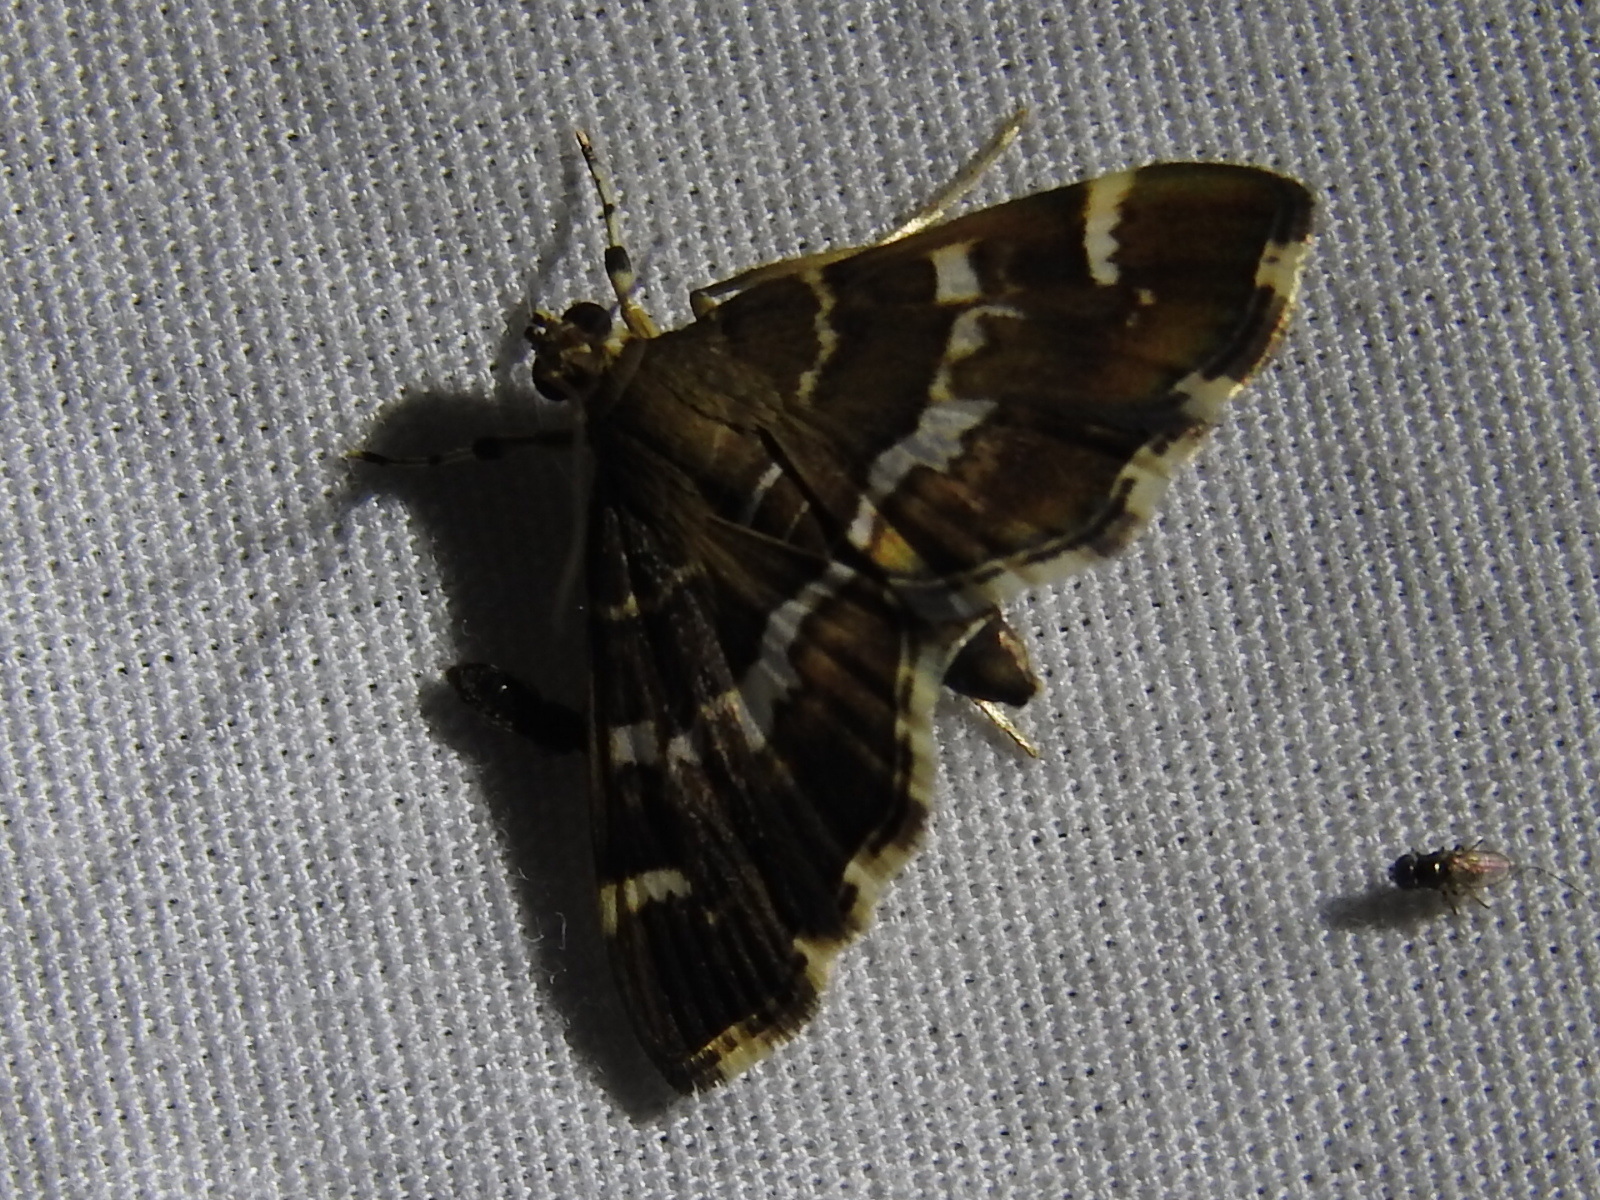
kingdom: Animalia
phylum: Arthropoda
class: Insecta
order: Lepidoptera
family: Crambidae
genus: Hymenia
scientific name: Hymenia perspectalis
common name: Spotted beet webworm
